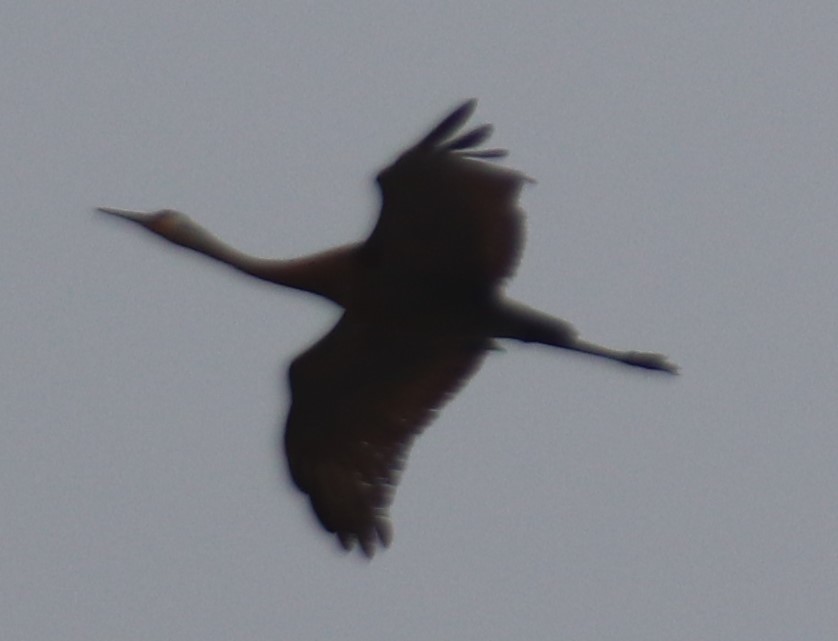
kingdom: Animalia
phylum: Chordata
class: Aves
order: Gruiformes
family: Gruidae
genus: Grus
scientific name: Grus canadensis
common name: Sandhill crane
